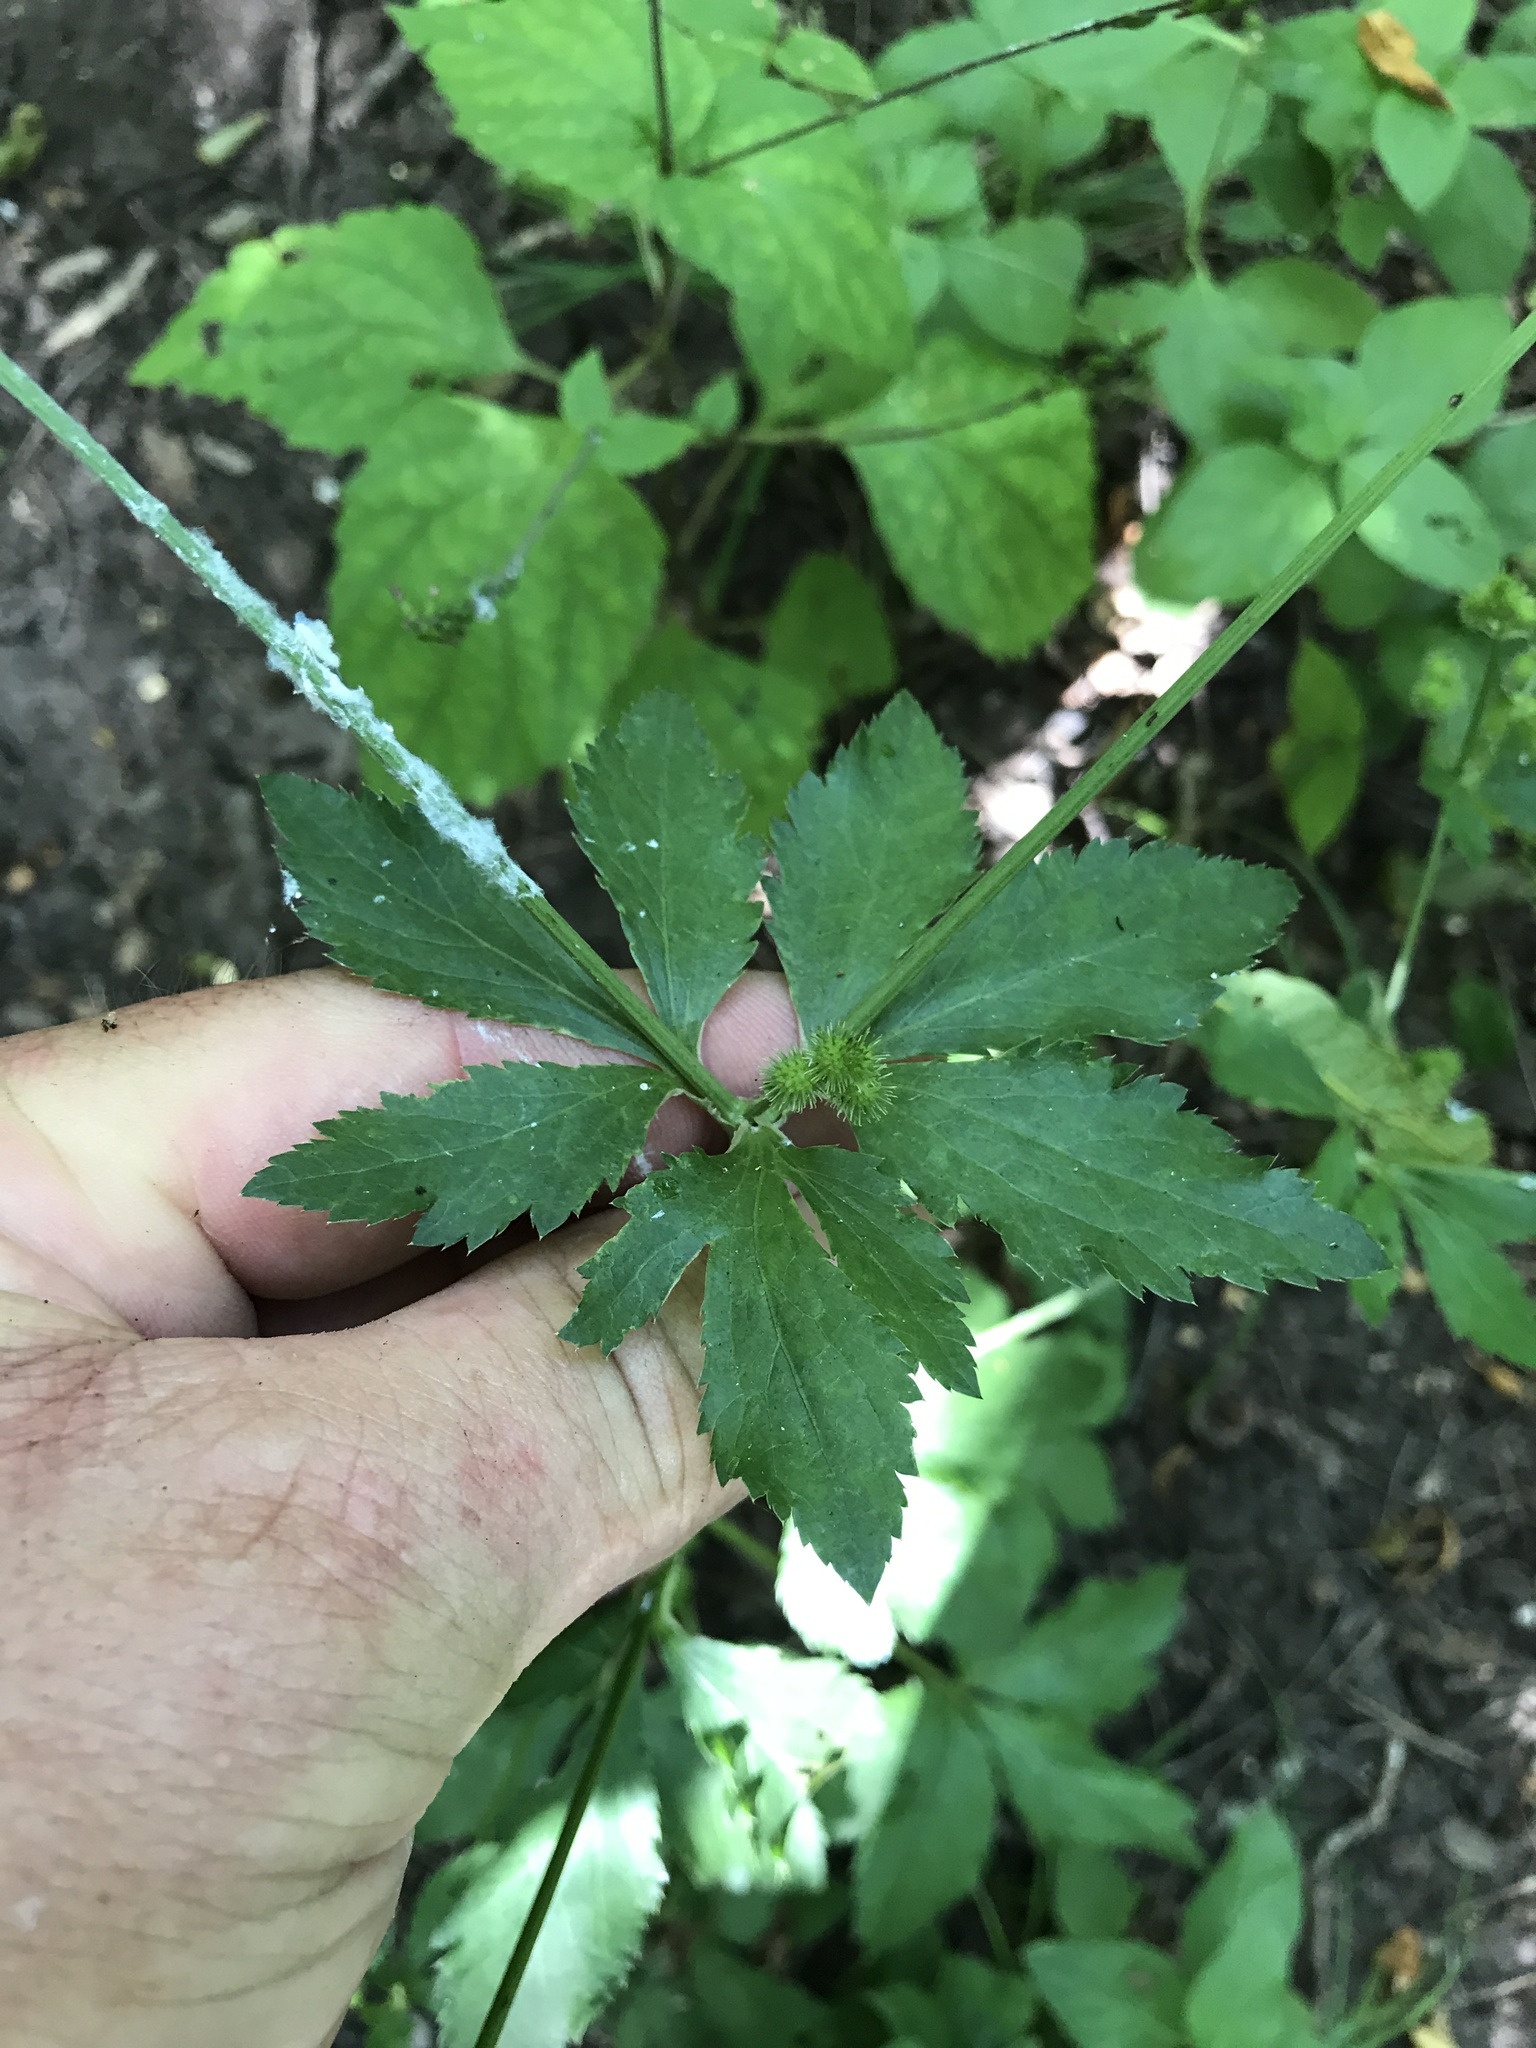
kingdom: Plantae
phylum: Tracheophyta
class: Magnoliopsida
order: Apiales
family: Apiaceae
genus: Sanicula
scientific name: Sanicula canadensis
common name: Canada sanicle
